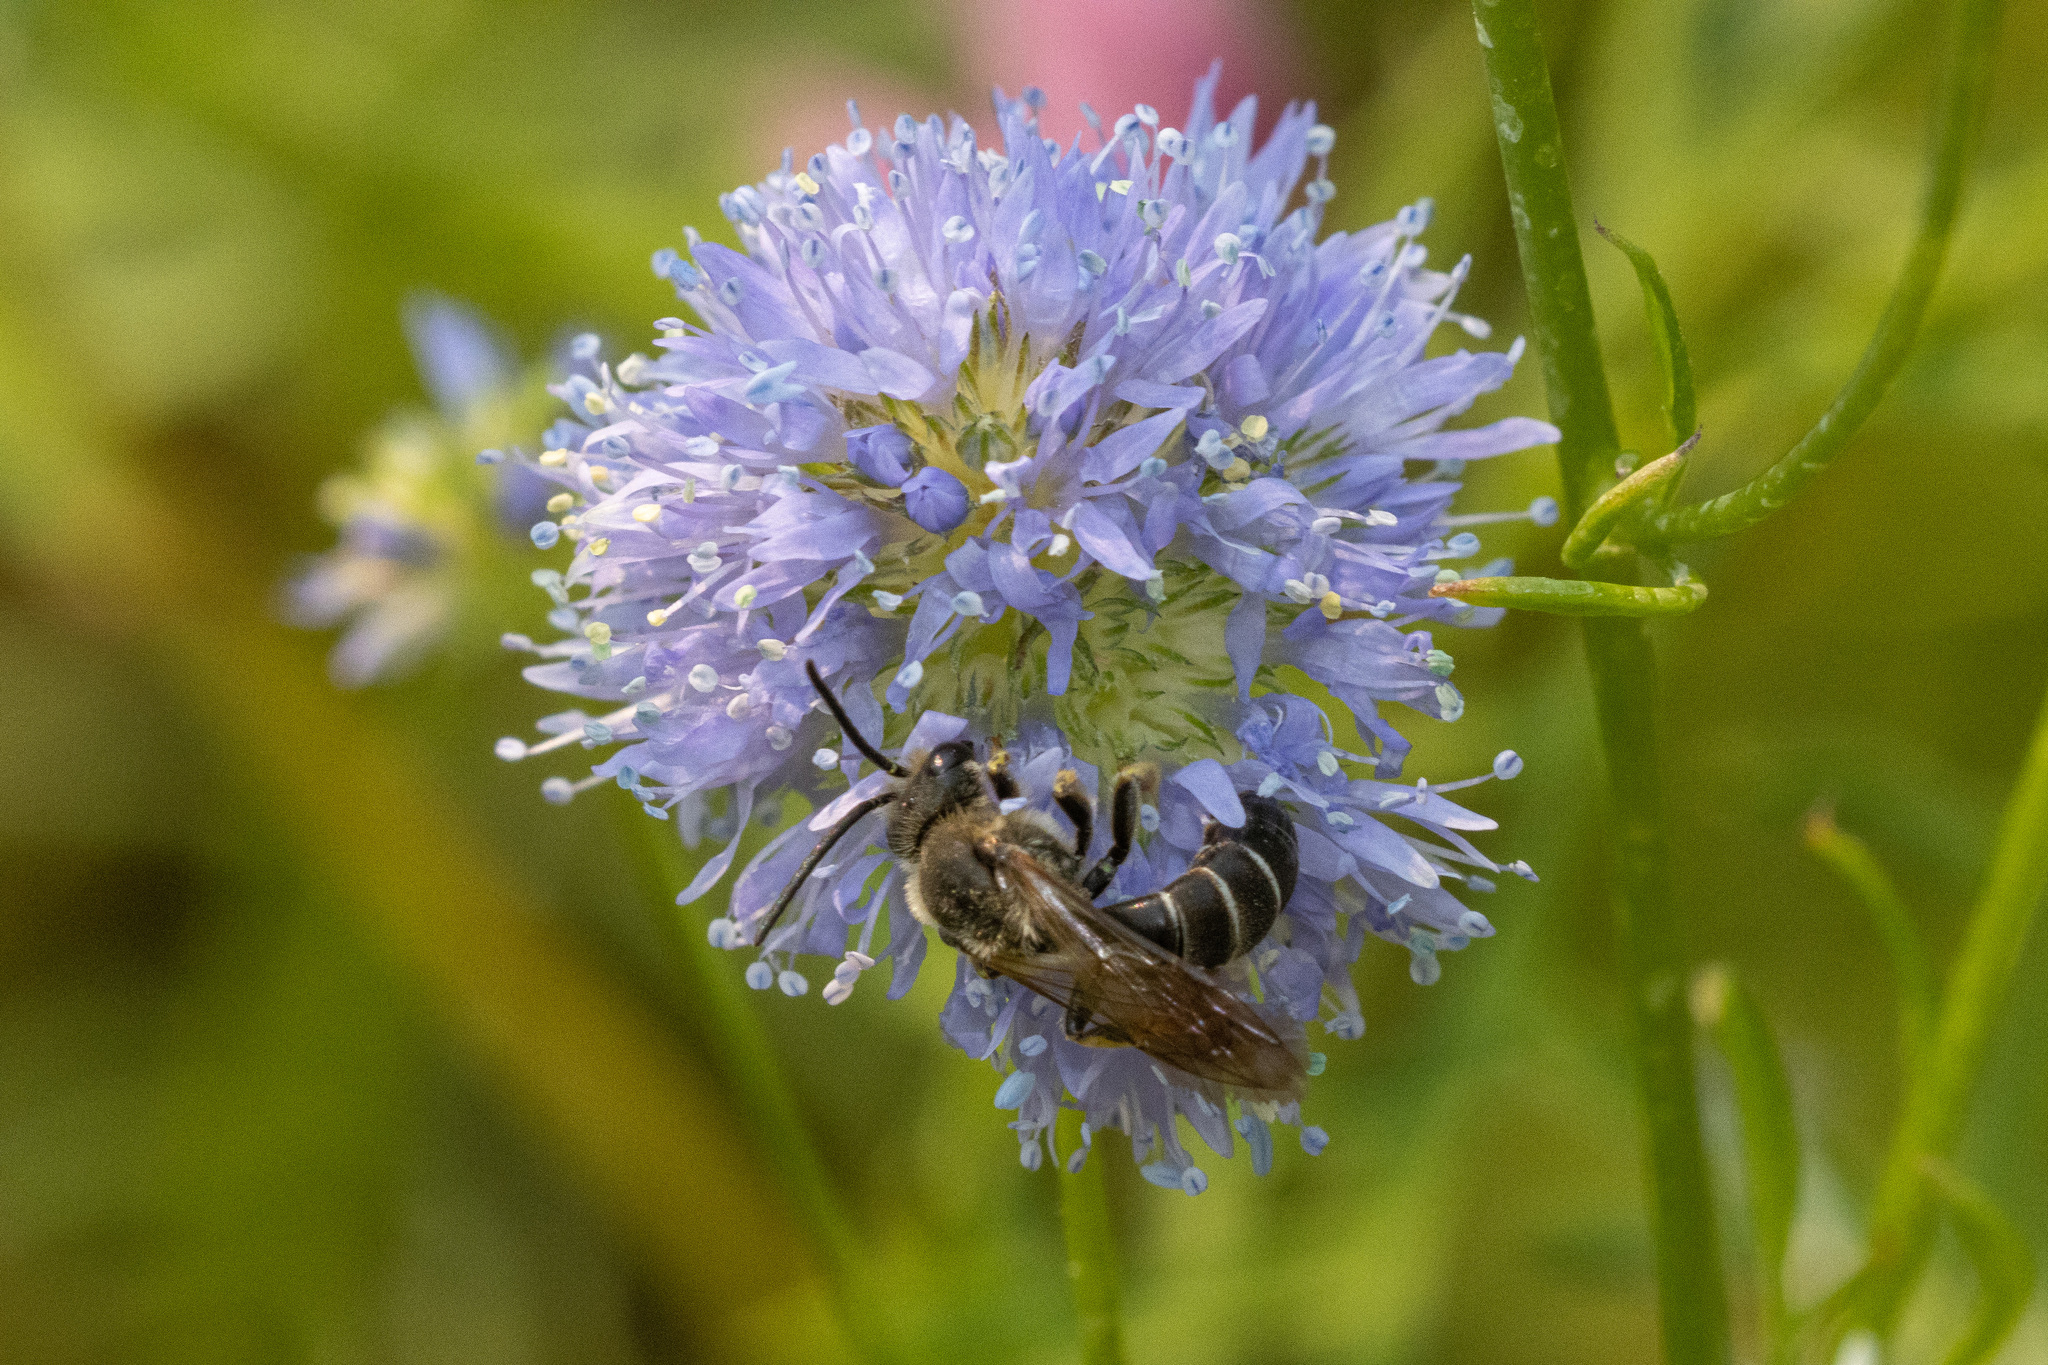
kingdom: Animalia
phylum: Arthropoda
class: Insecta
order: Hymenoptera
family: Halictidae
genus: Halictus
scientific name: Halictus rubicundus
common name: Orange-legged furrow bee
